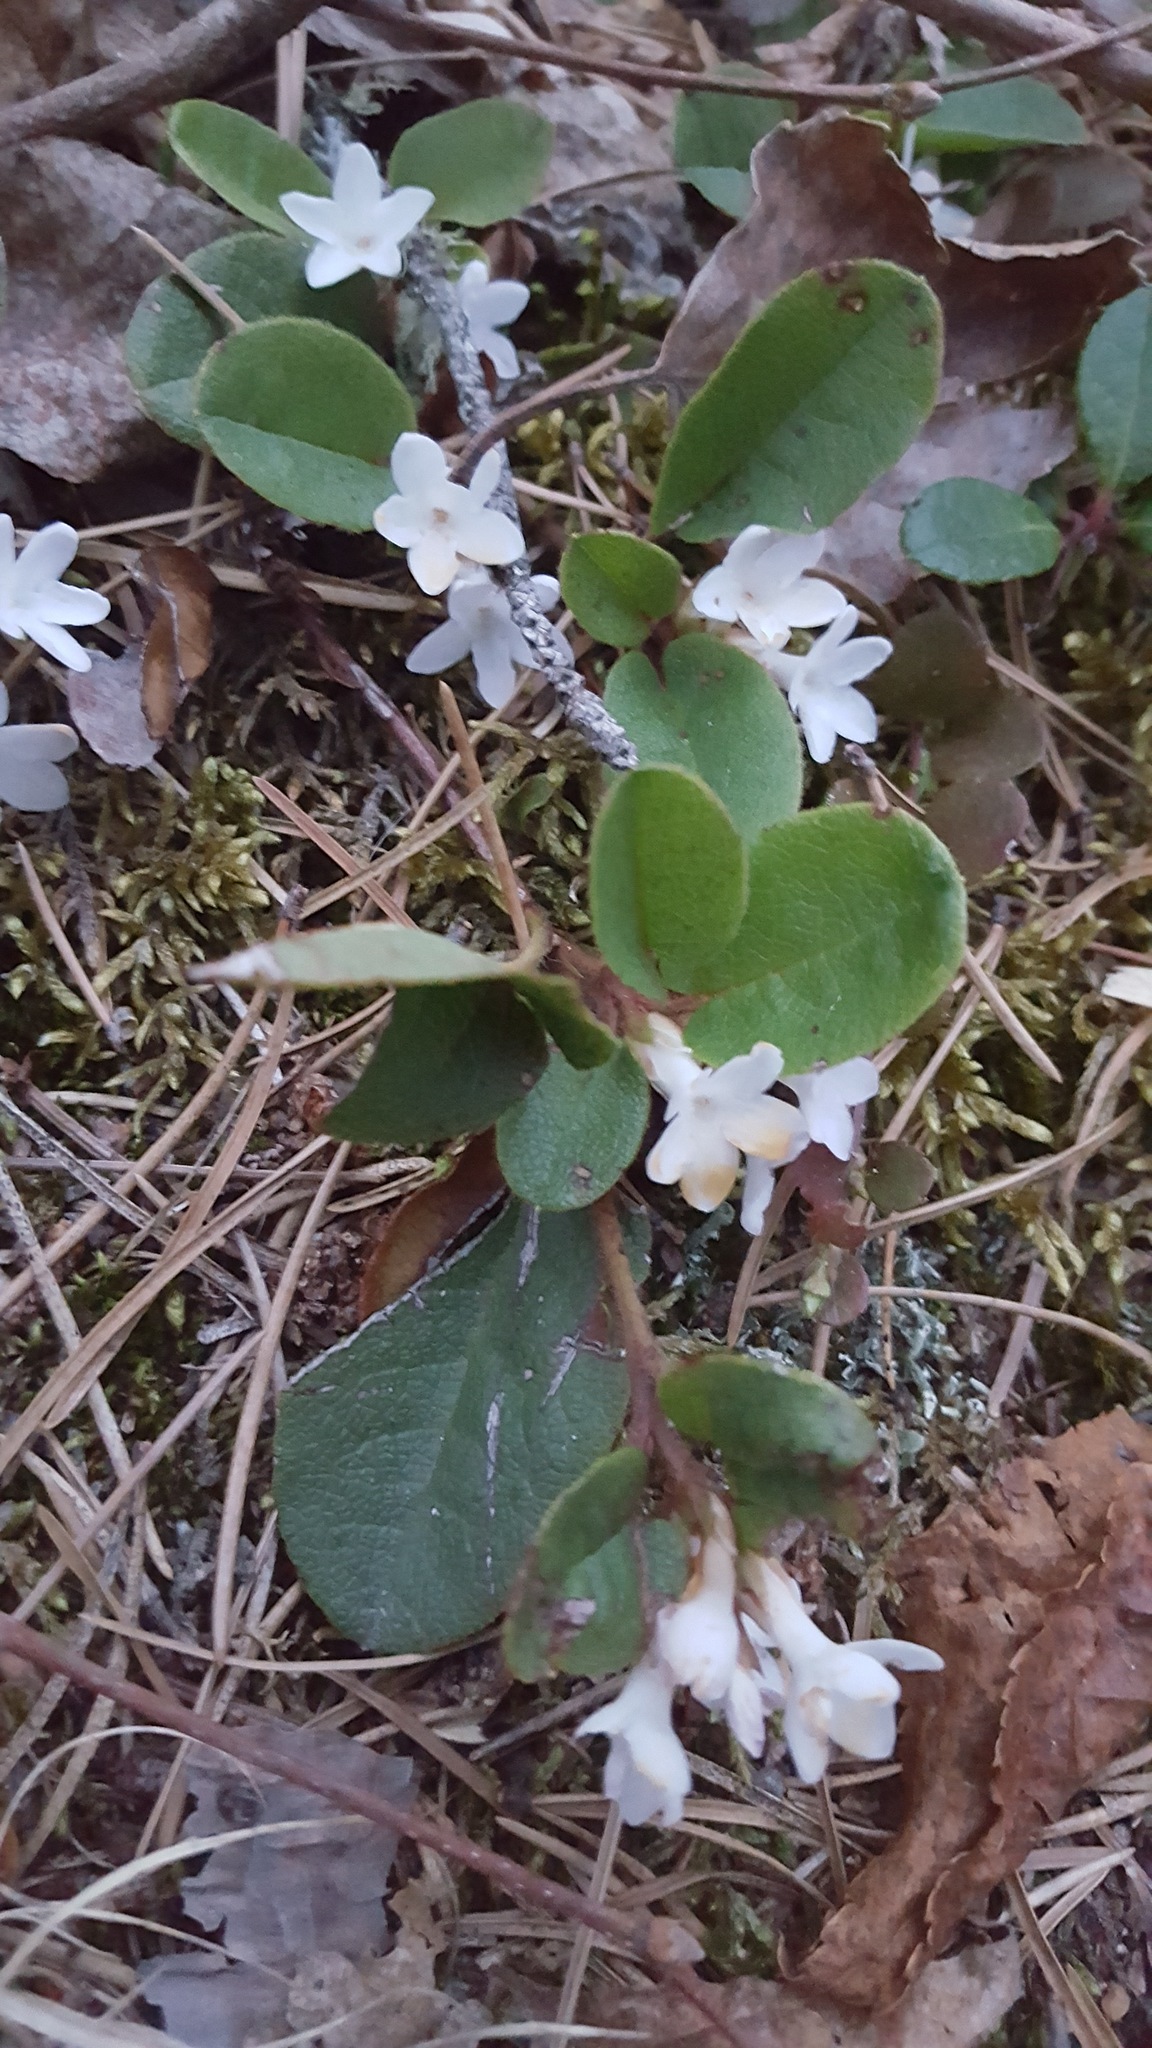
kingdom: Plantae
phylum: Tracheophyta
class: Magnoliopsida
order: Ericales
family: Ericaceae
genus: Epigaea
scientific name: Epigaea repens
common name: Gravelroot
